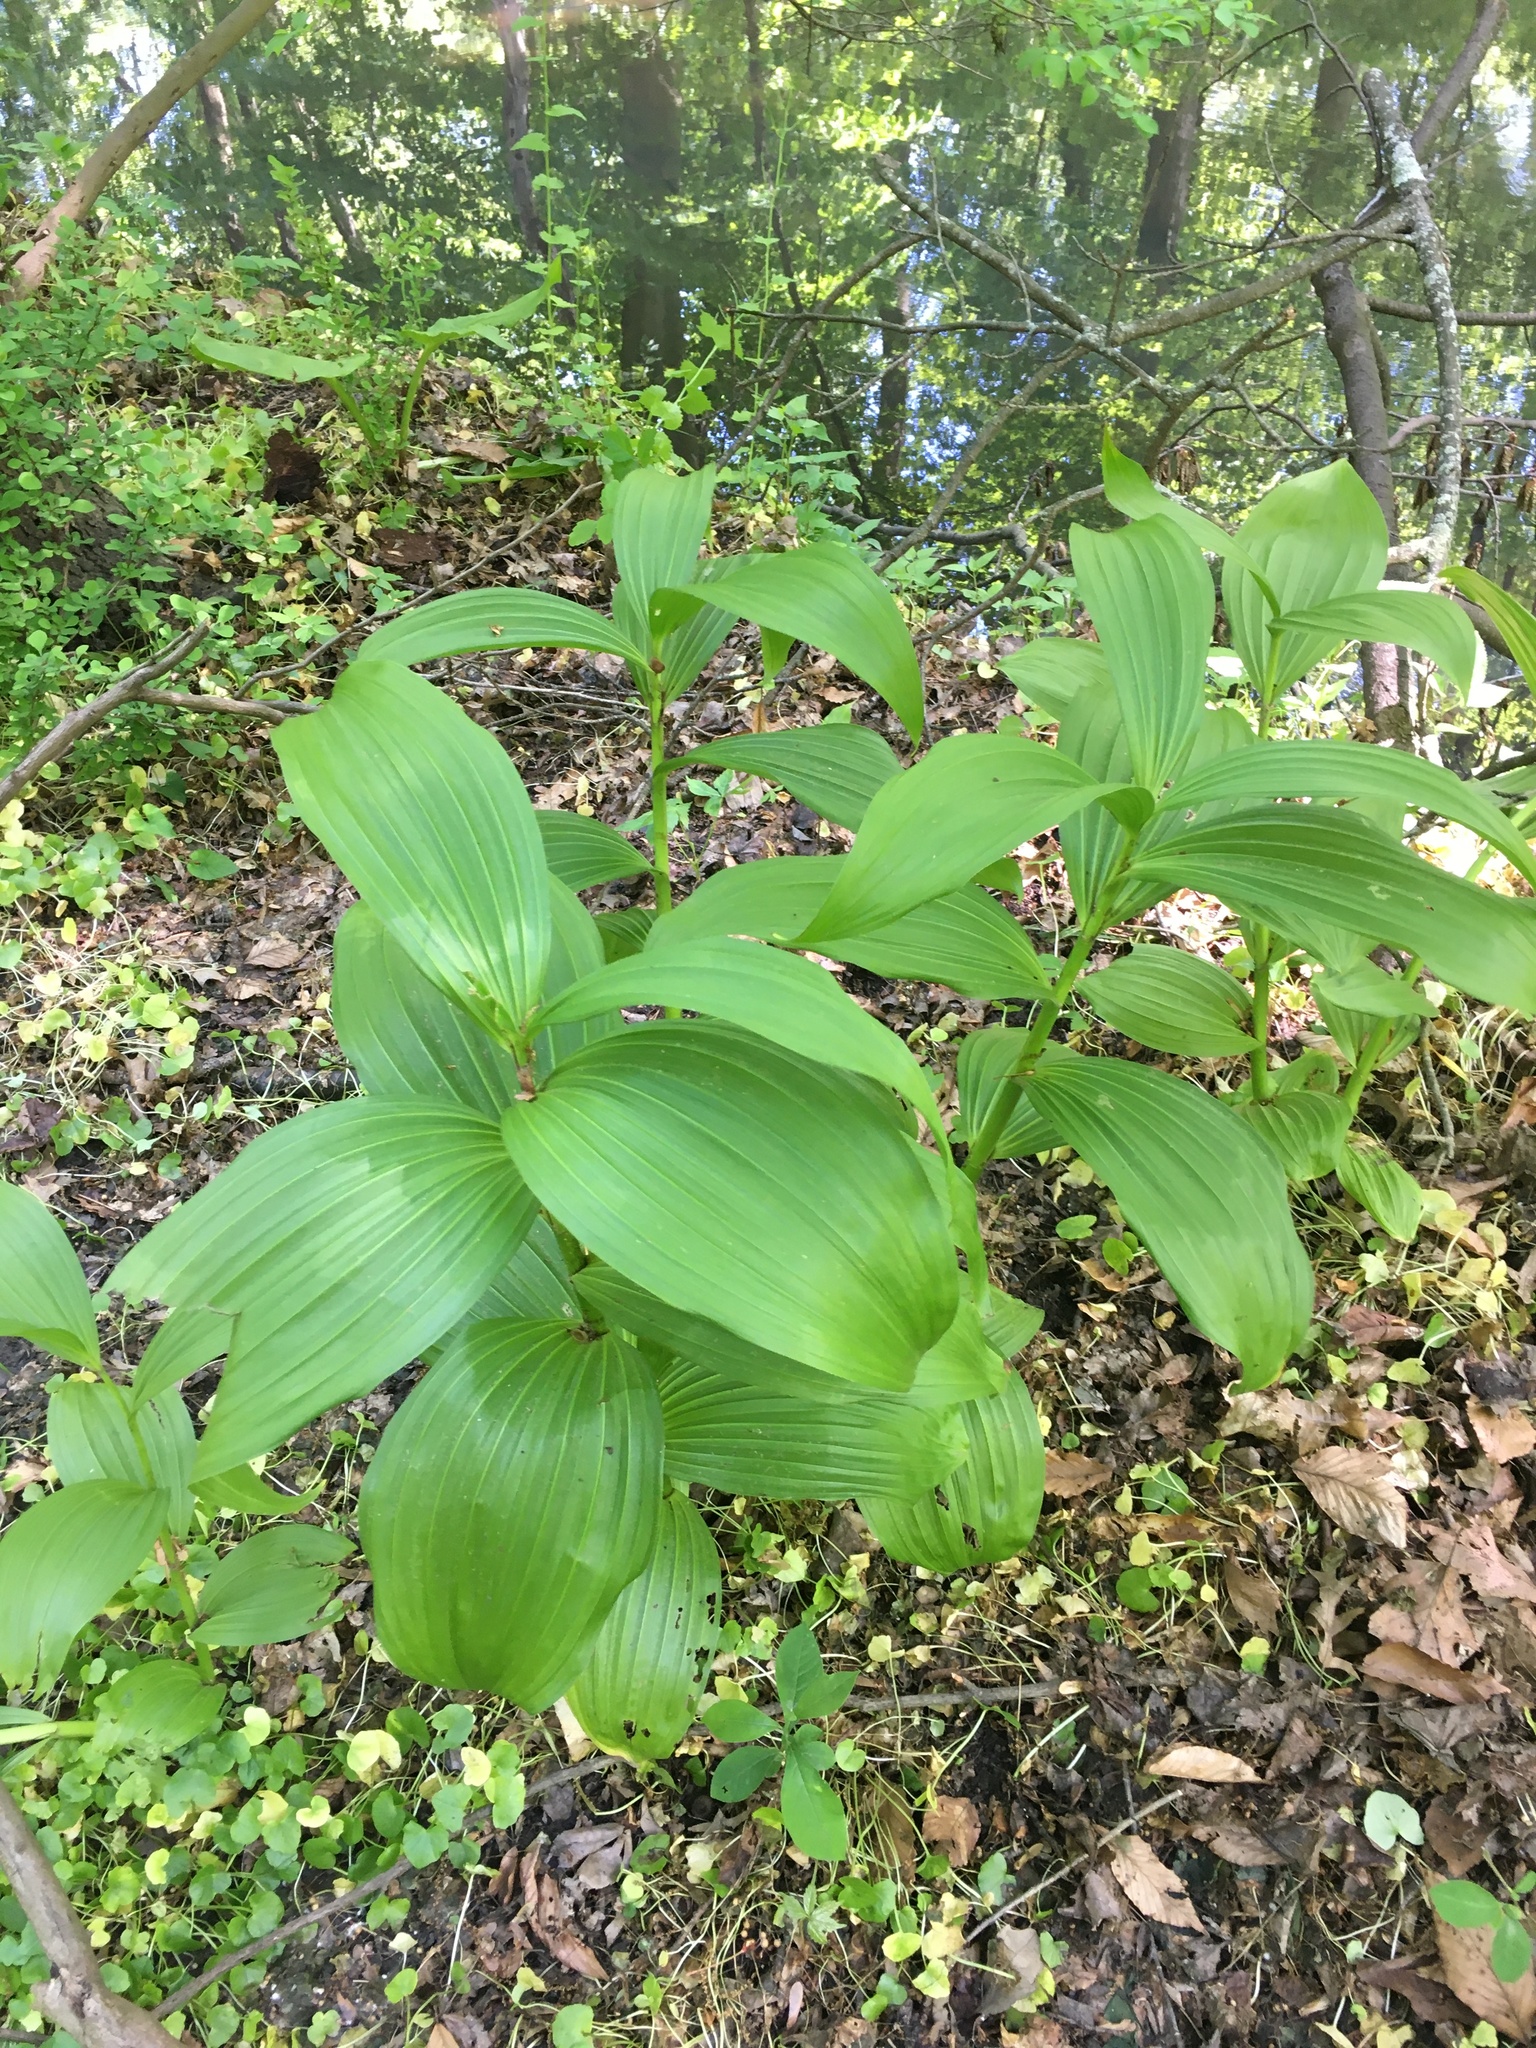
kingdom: Plantae
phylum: Tracheophyta
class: Liliopsida
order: Liliales
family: Melanthiaceae
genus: Veratrum
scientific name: Veratrum viride
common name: American false hellebore
